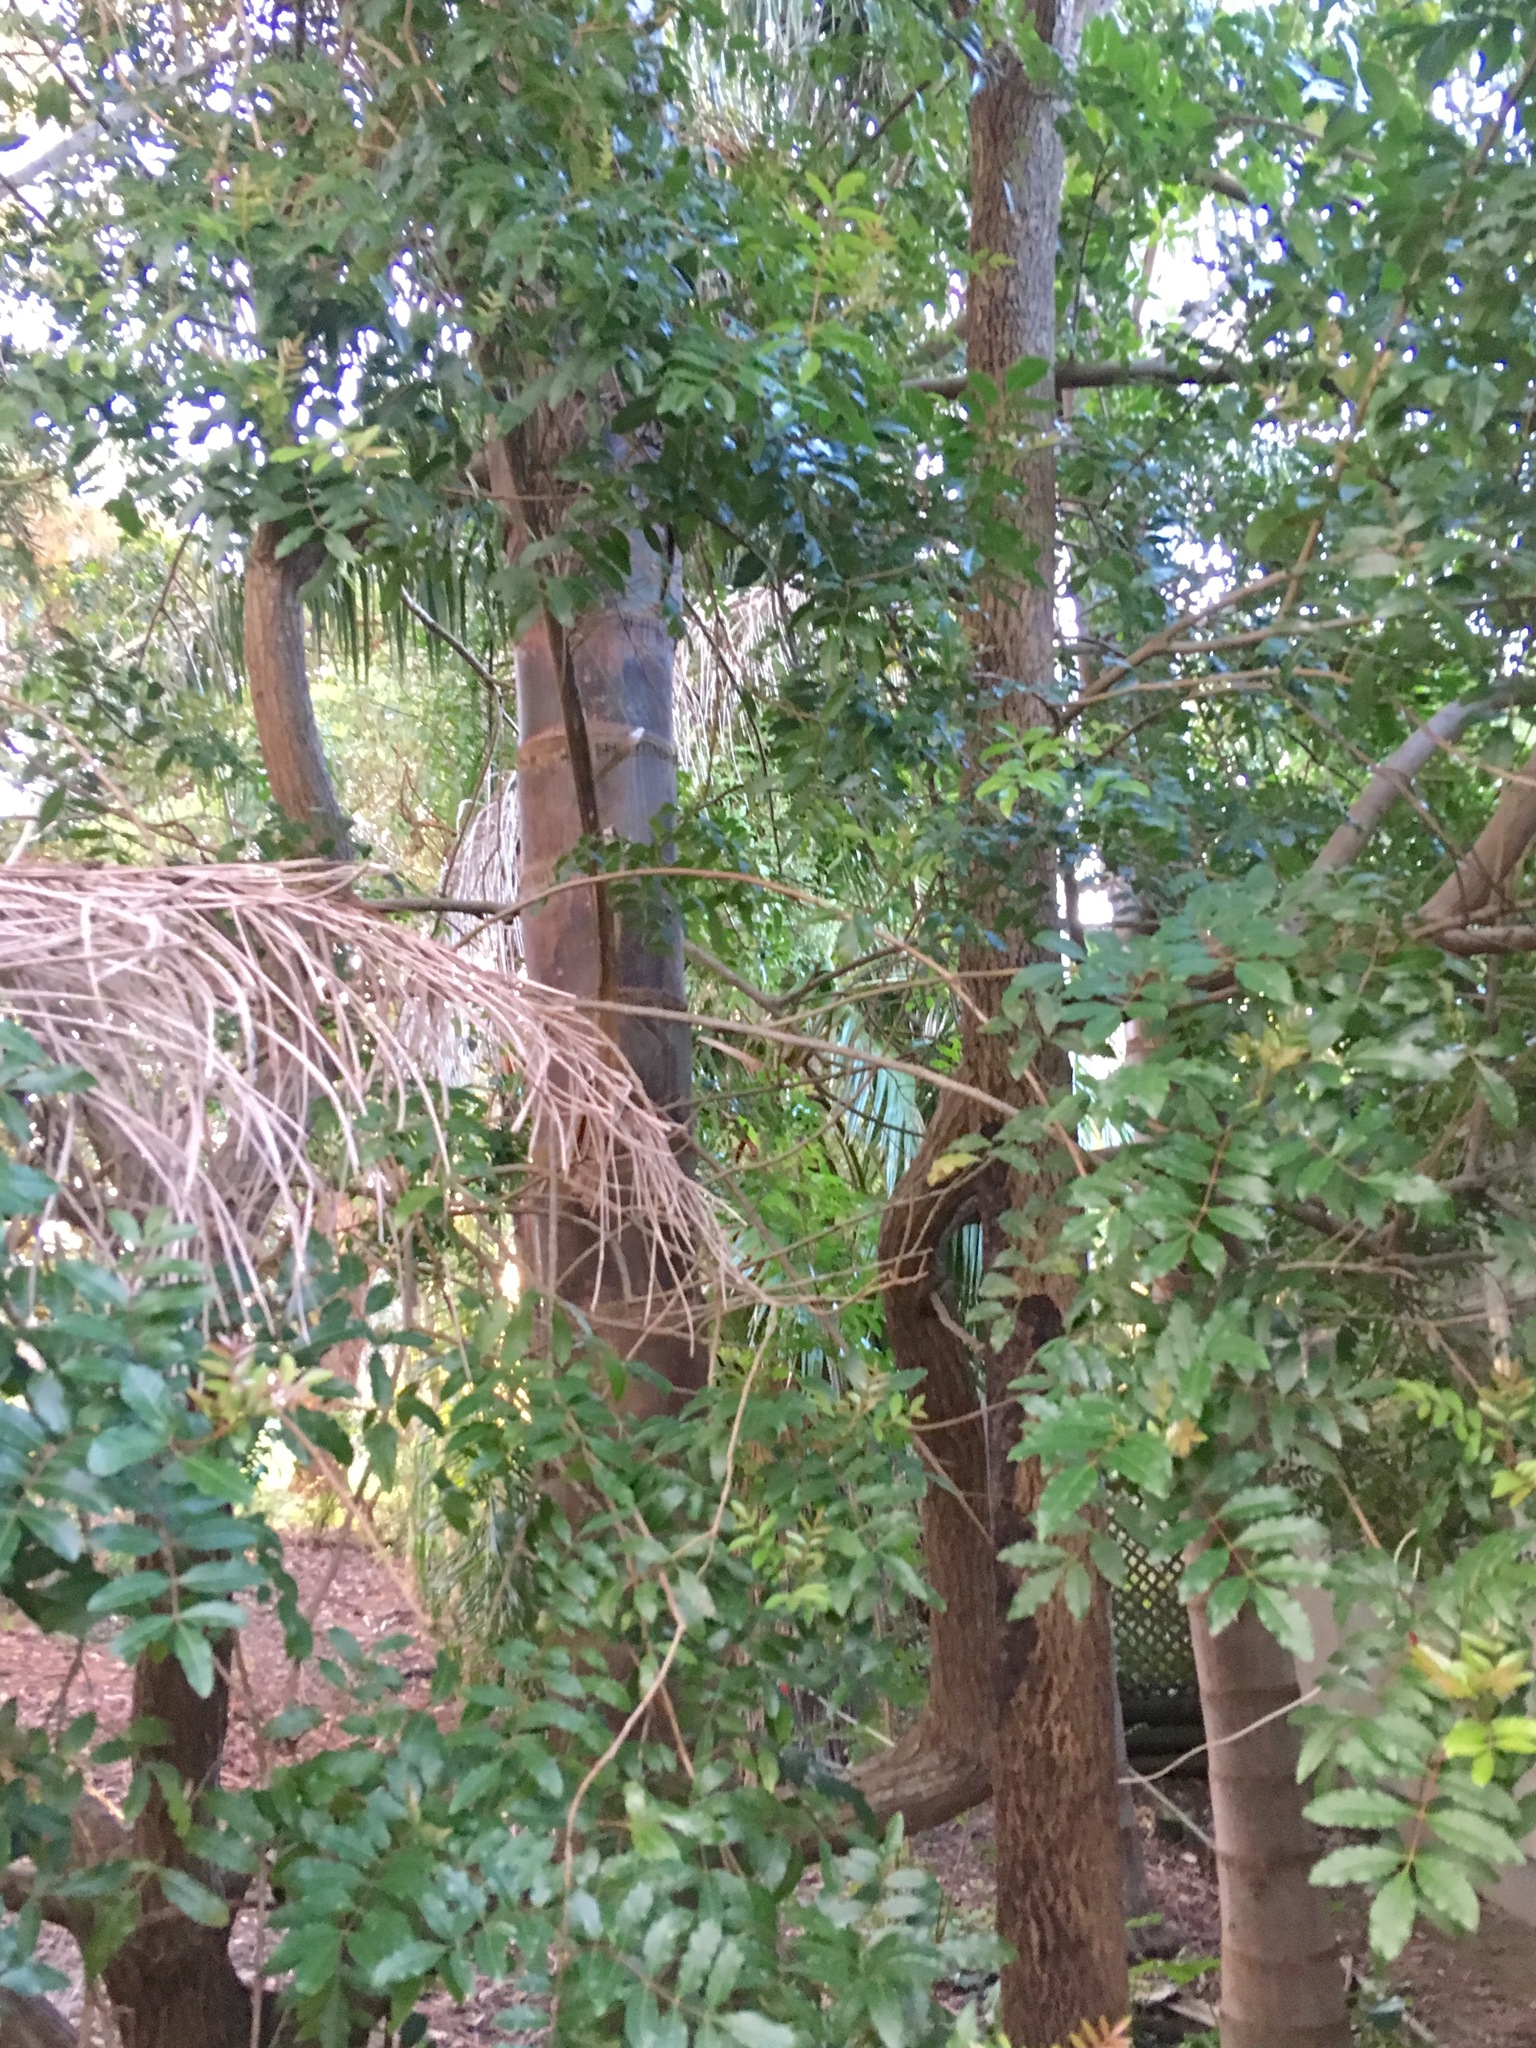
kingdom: Plantae
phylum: Tracheophyta
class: Magnoliopsida
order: Sapindales
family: Anacardiaceae
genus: Schinus
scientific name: Schinus terebinthifolia
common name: Brazilian peppertree
